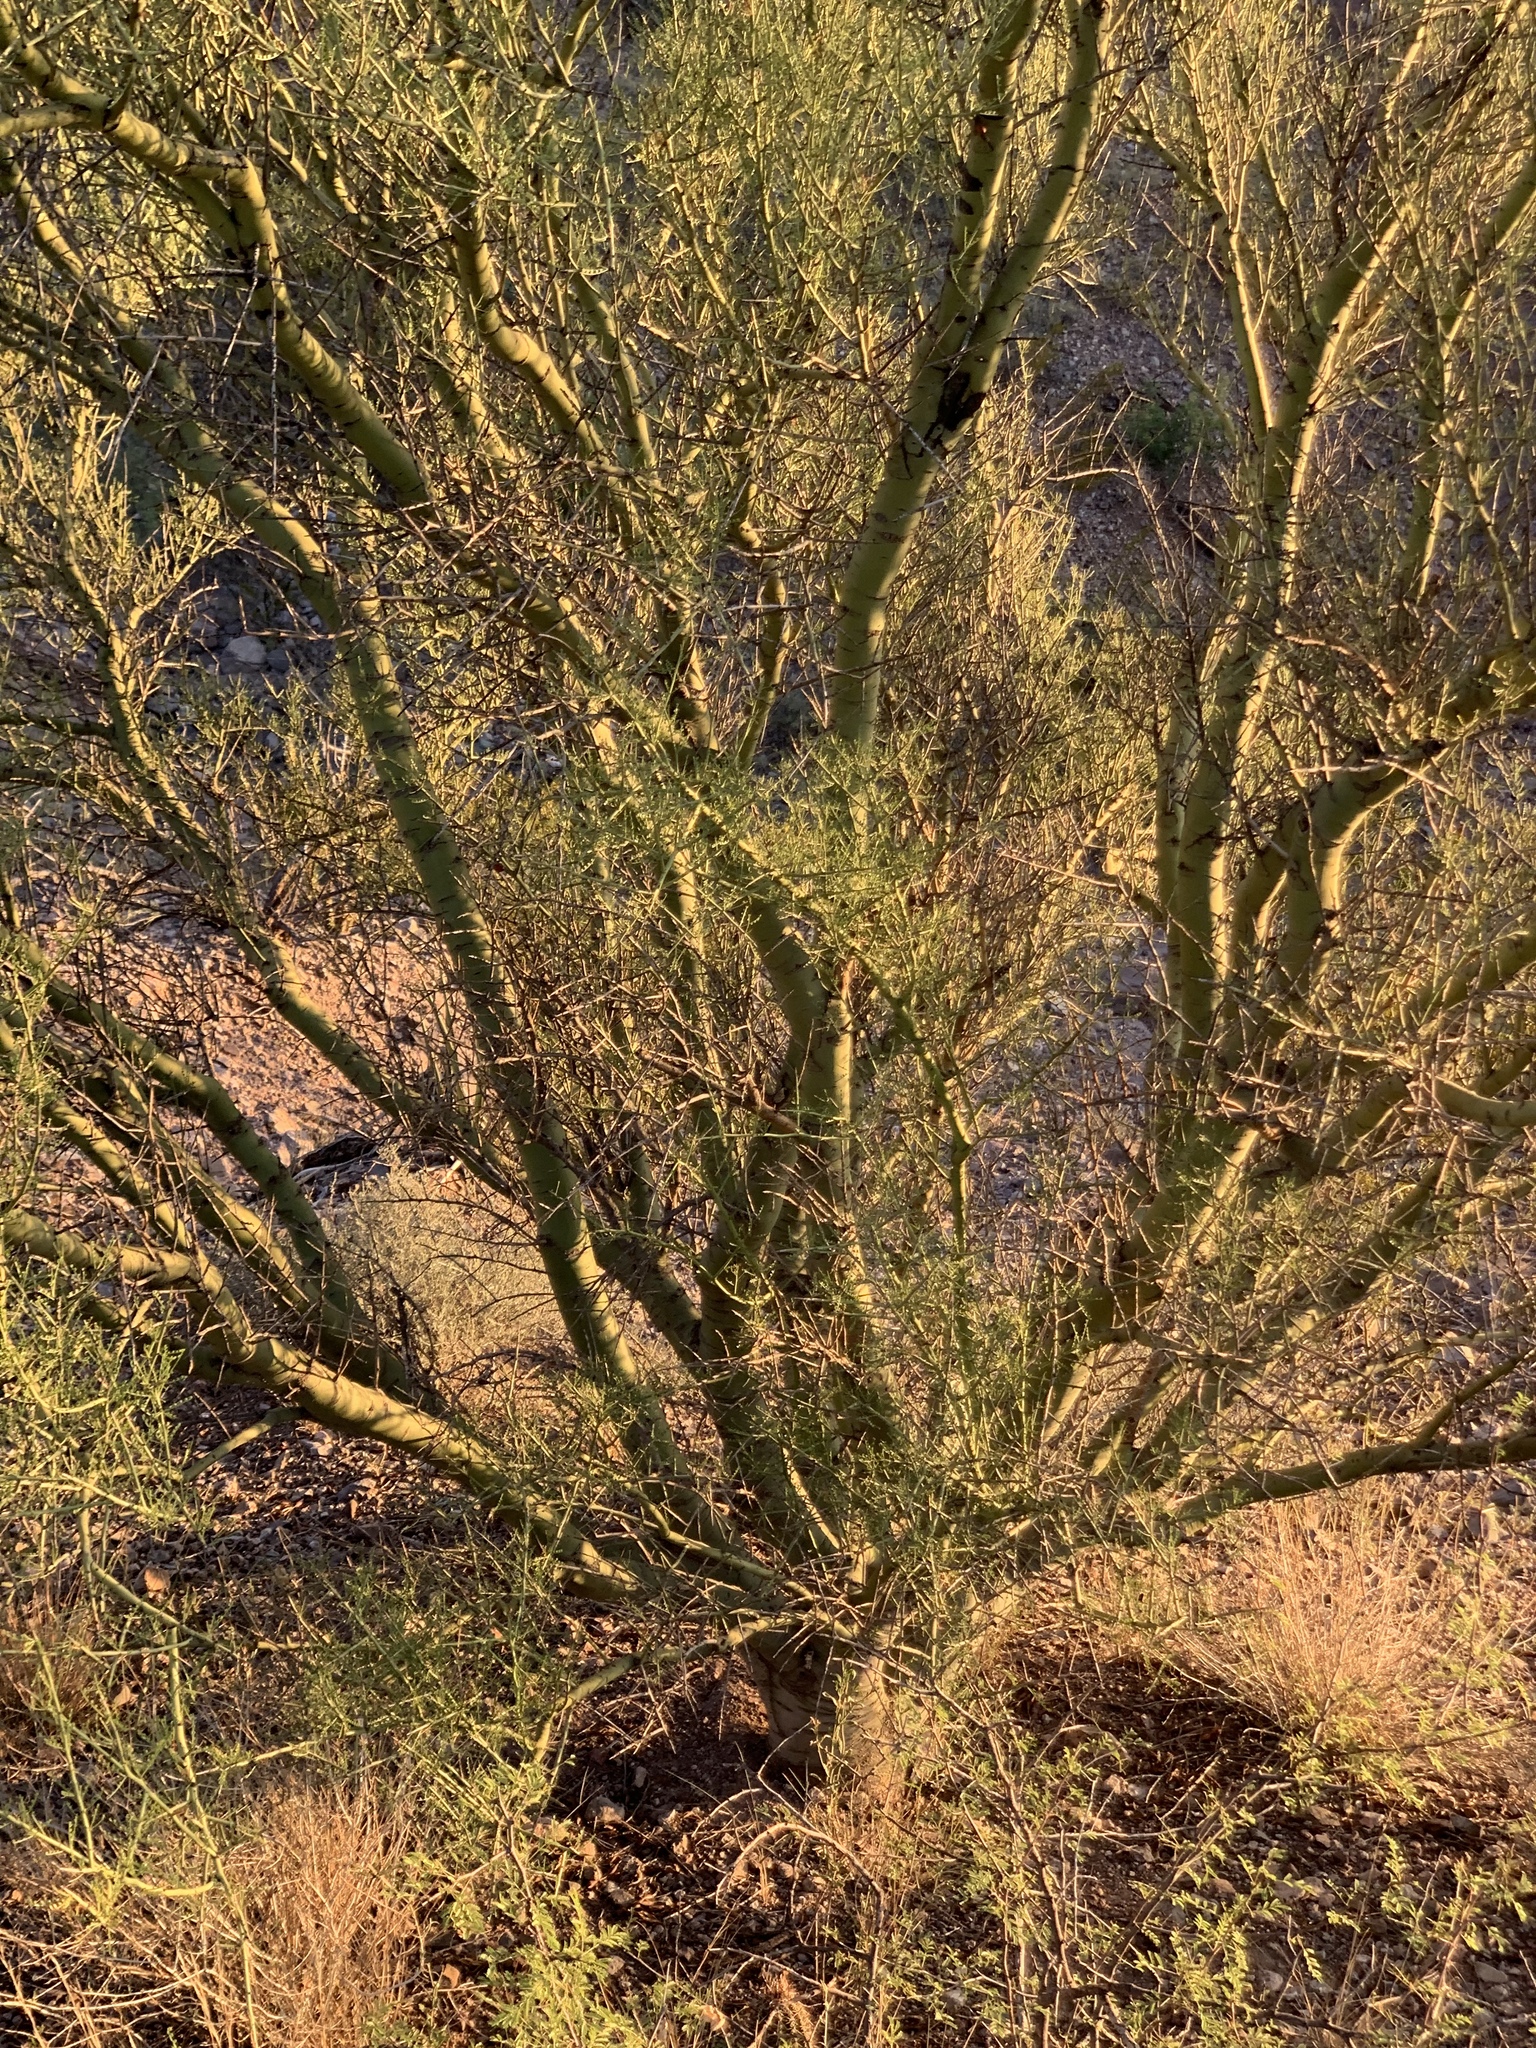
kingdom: Plantae
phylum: Tracheophyta
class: Magnoliopsida
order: Fabales
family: Fabaceae
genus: Parkinsonia
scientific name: Parkinsonia microphylla
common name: Yellow paloverde
